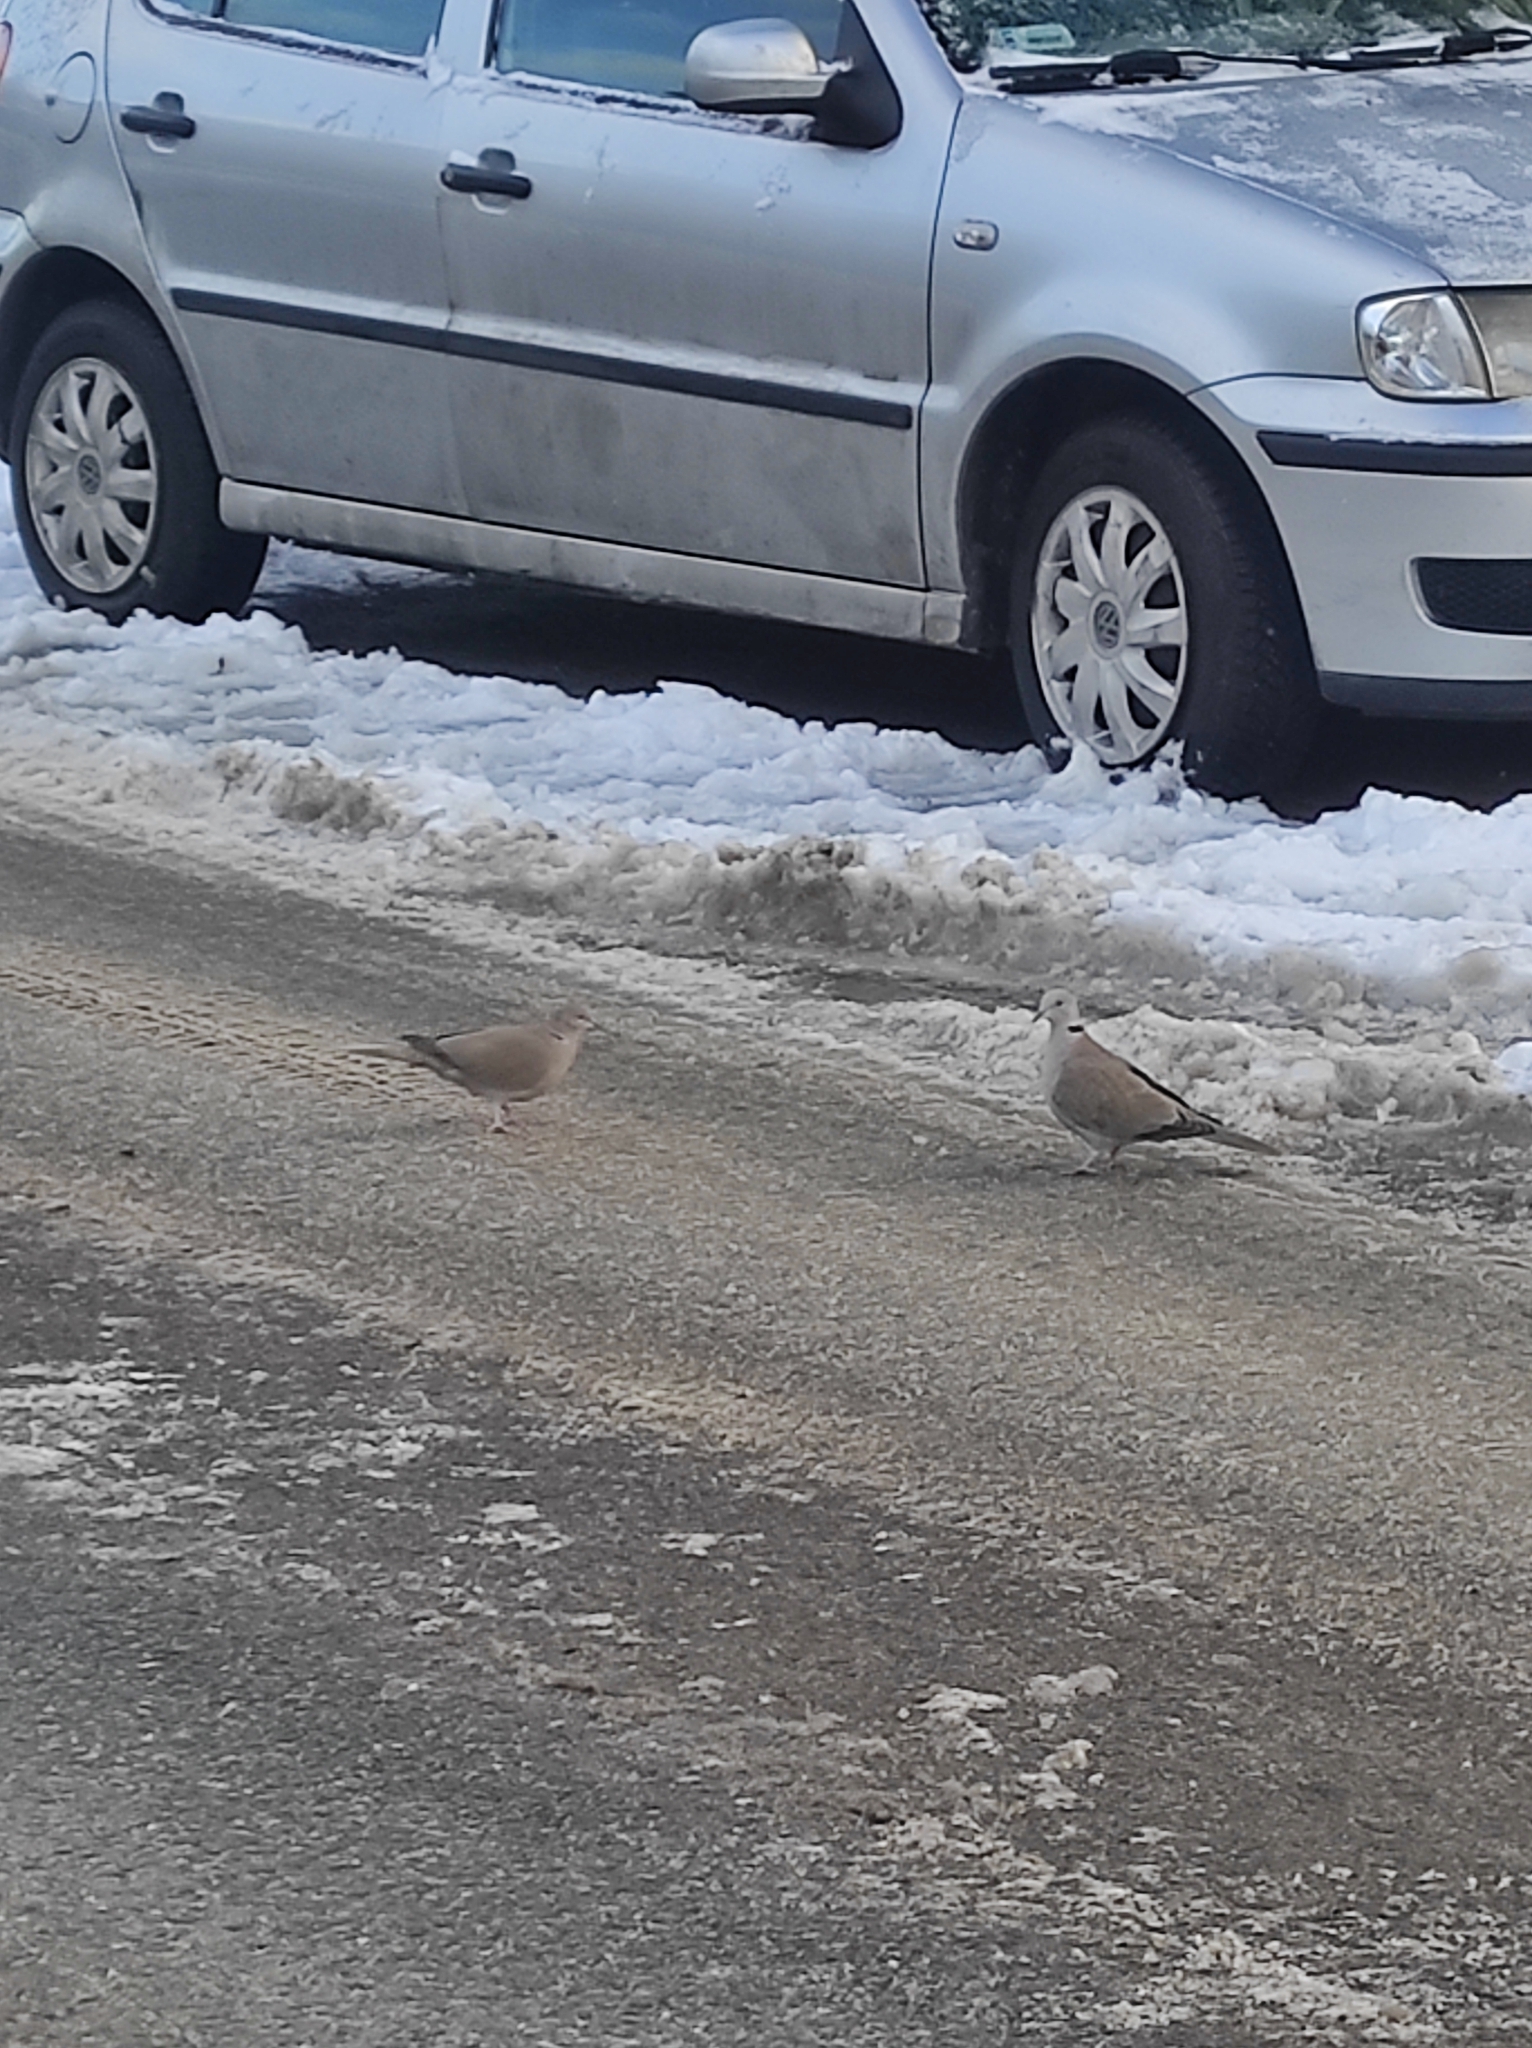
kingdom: Animalia
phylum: Chordata
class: Aves
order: Columbiformes
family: Columbidae
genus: Streptopelia
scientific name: Streptopelia decaocto
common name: Eurasian collared dove
